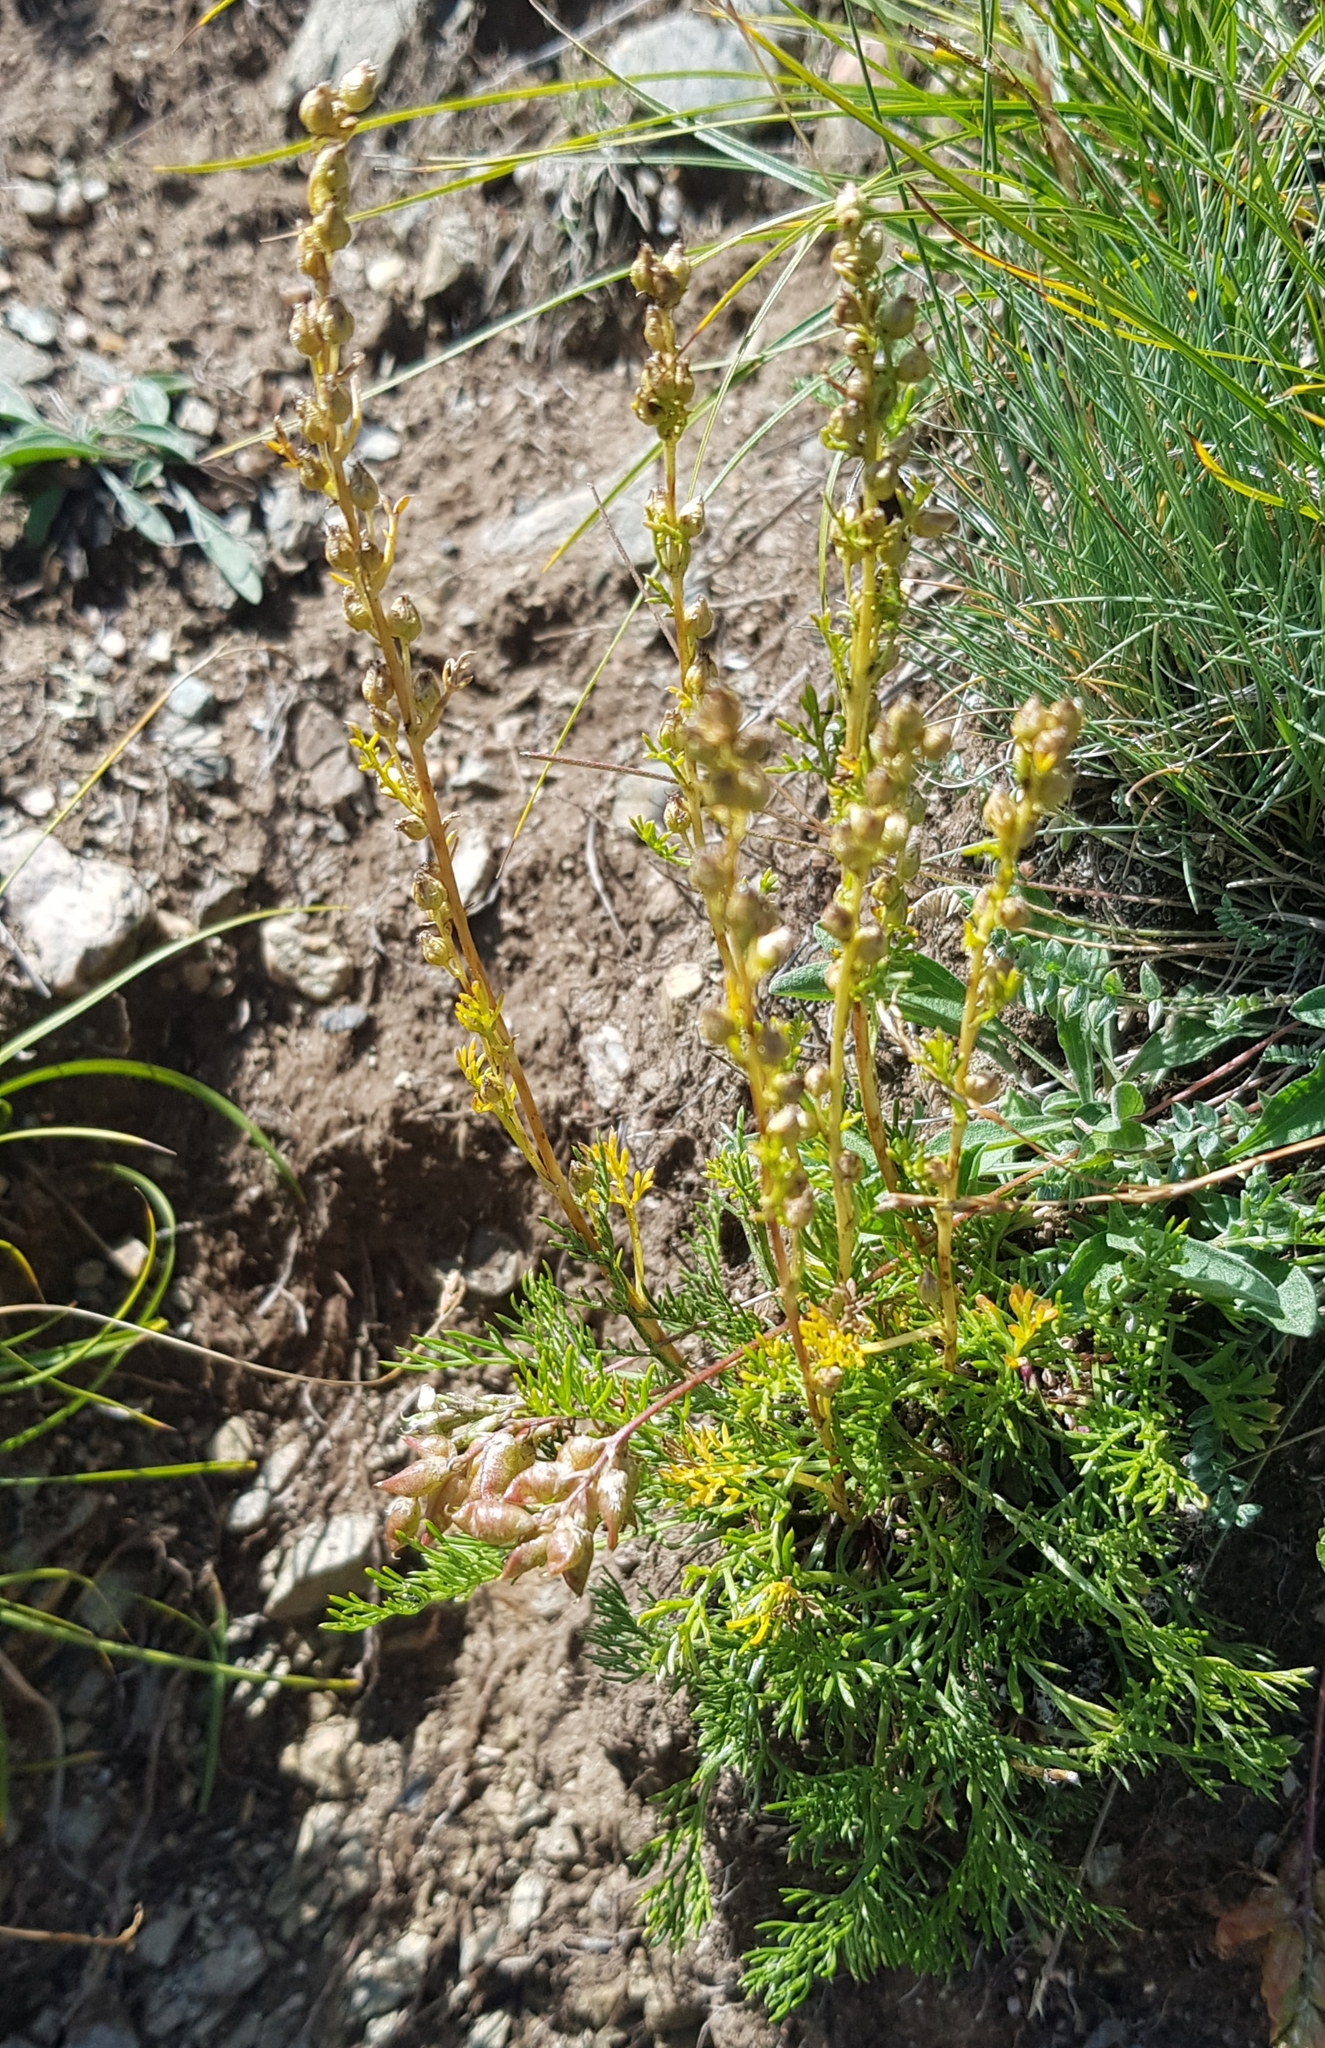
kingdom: Plantae
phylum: Tracheophyta
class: Magnoliopsida
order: Asterales
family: Asteraceae
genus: Artemisia
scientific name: Artemisia pubescens
